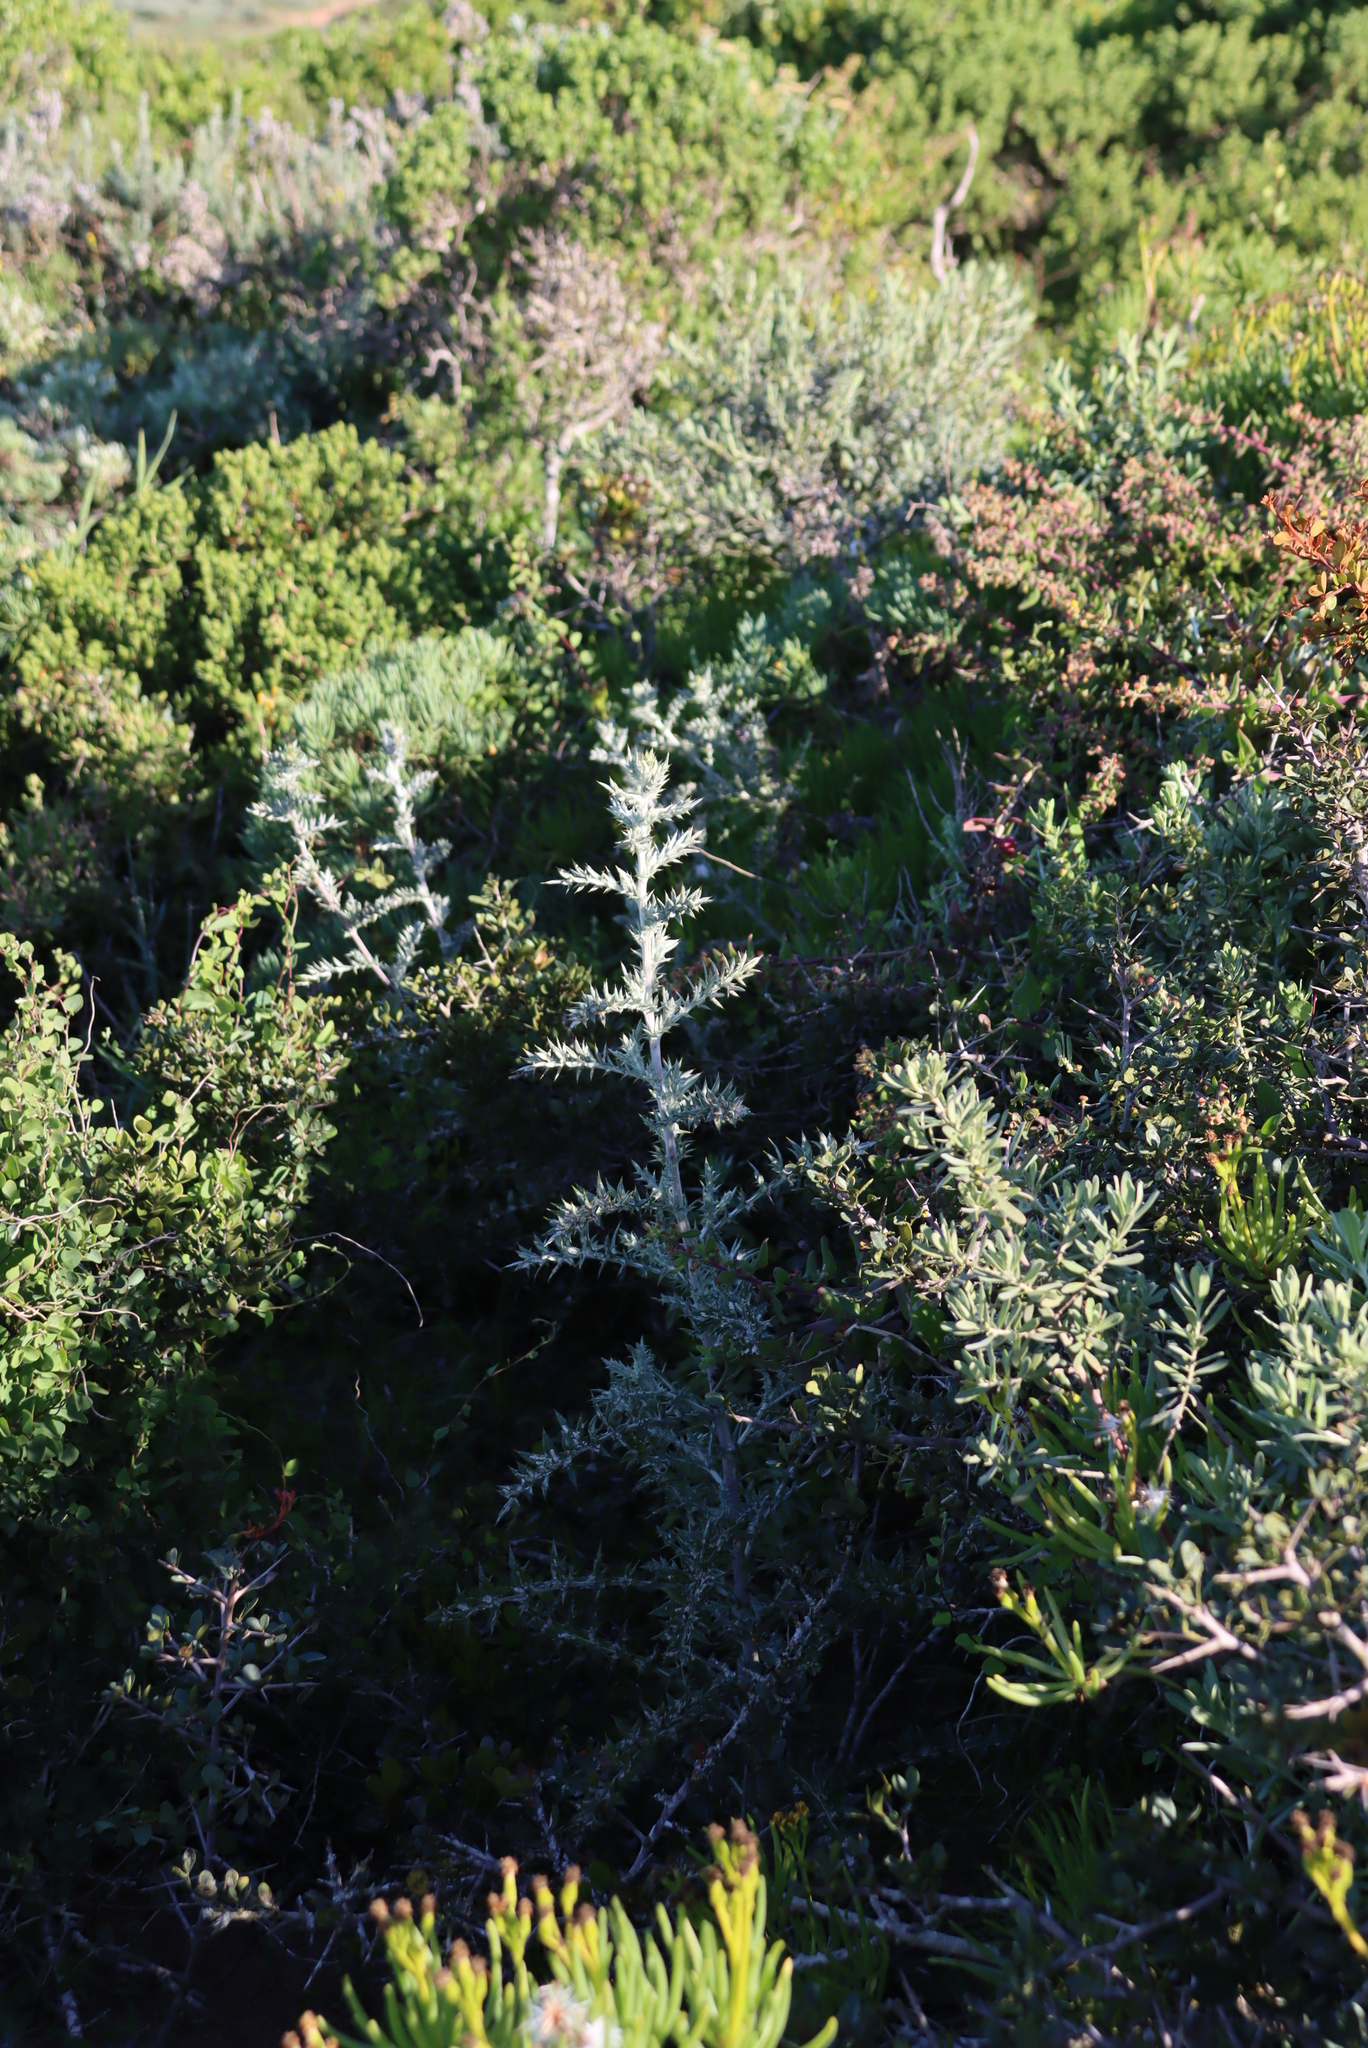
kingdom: Plantae
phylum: Tracheophyta
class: Magnoliopsida
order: Asterales
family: Asteraceae
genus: Berkheya
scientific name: Berkheya rigida
